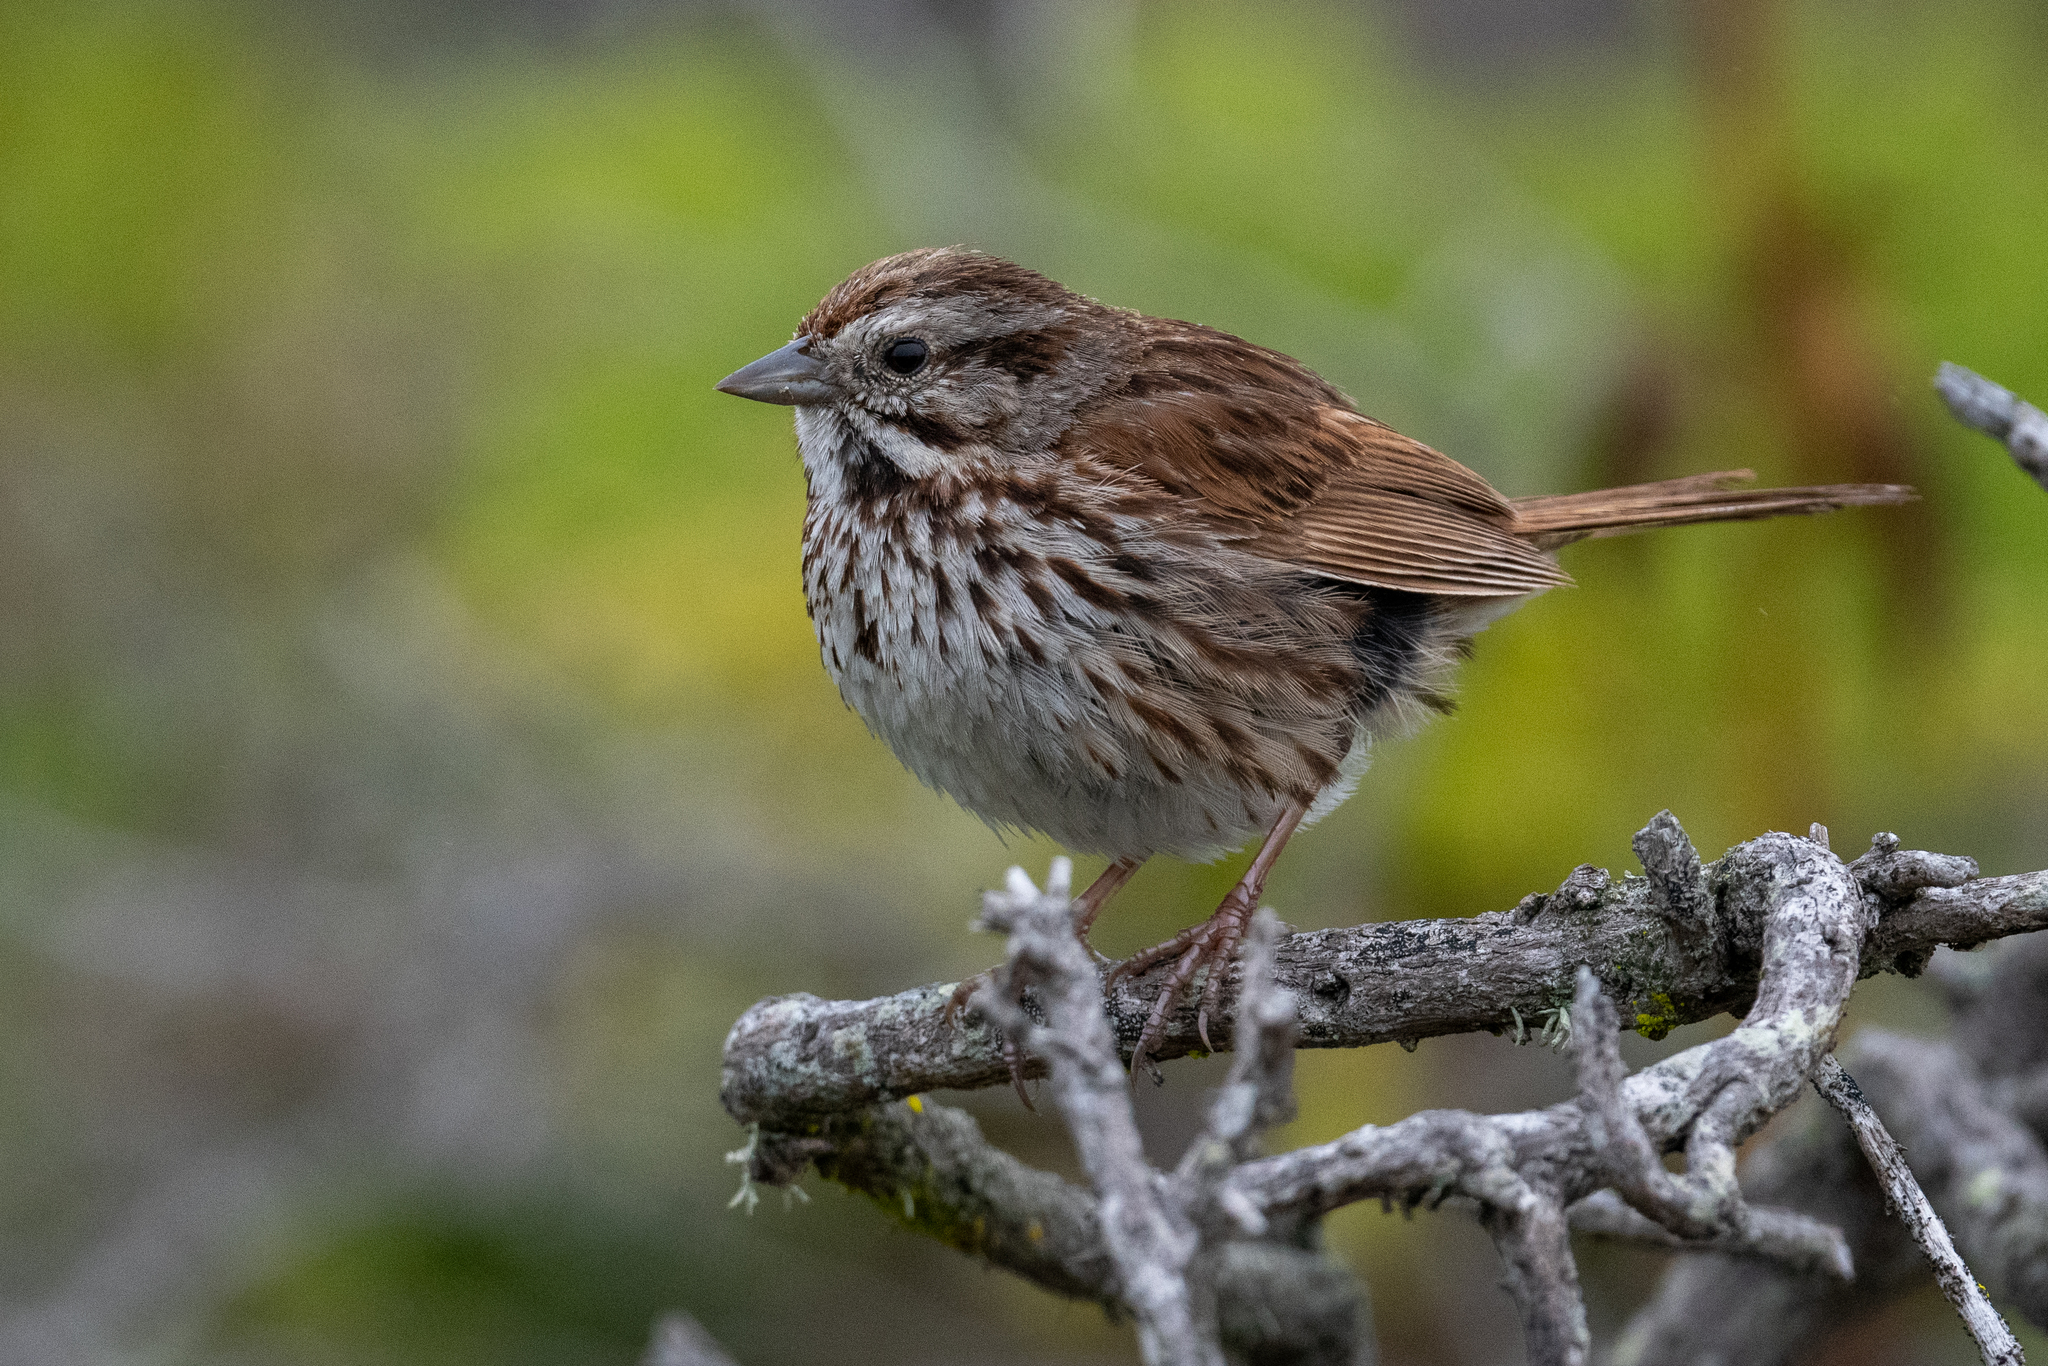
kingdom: Animalia
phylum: Chordata
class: Aves
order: Passeriformes
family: Passerellidae
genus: Melospiza
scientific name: Melospiza melodia
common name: Song sparrow
